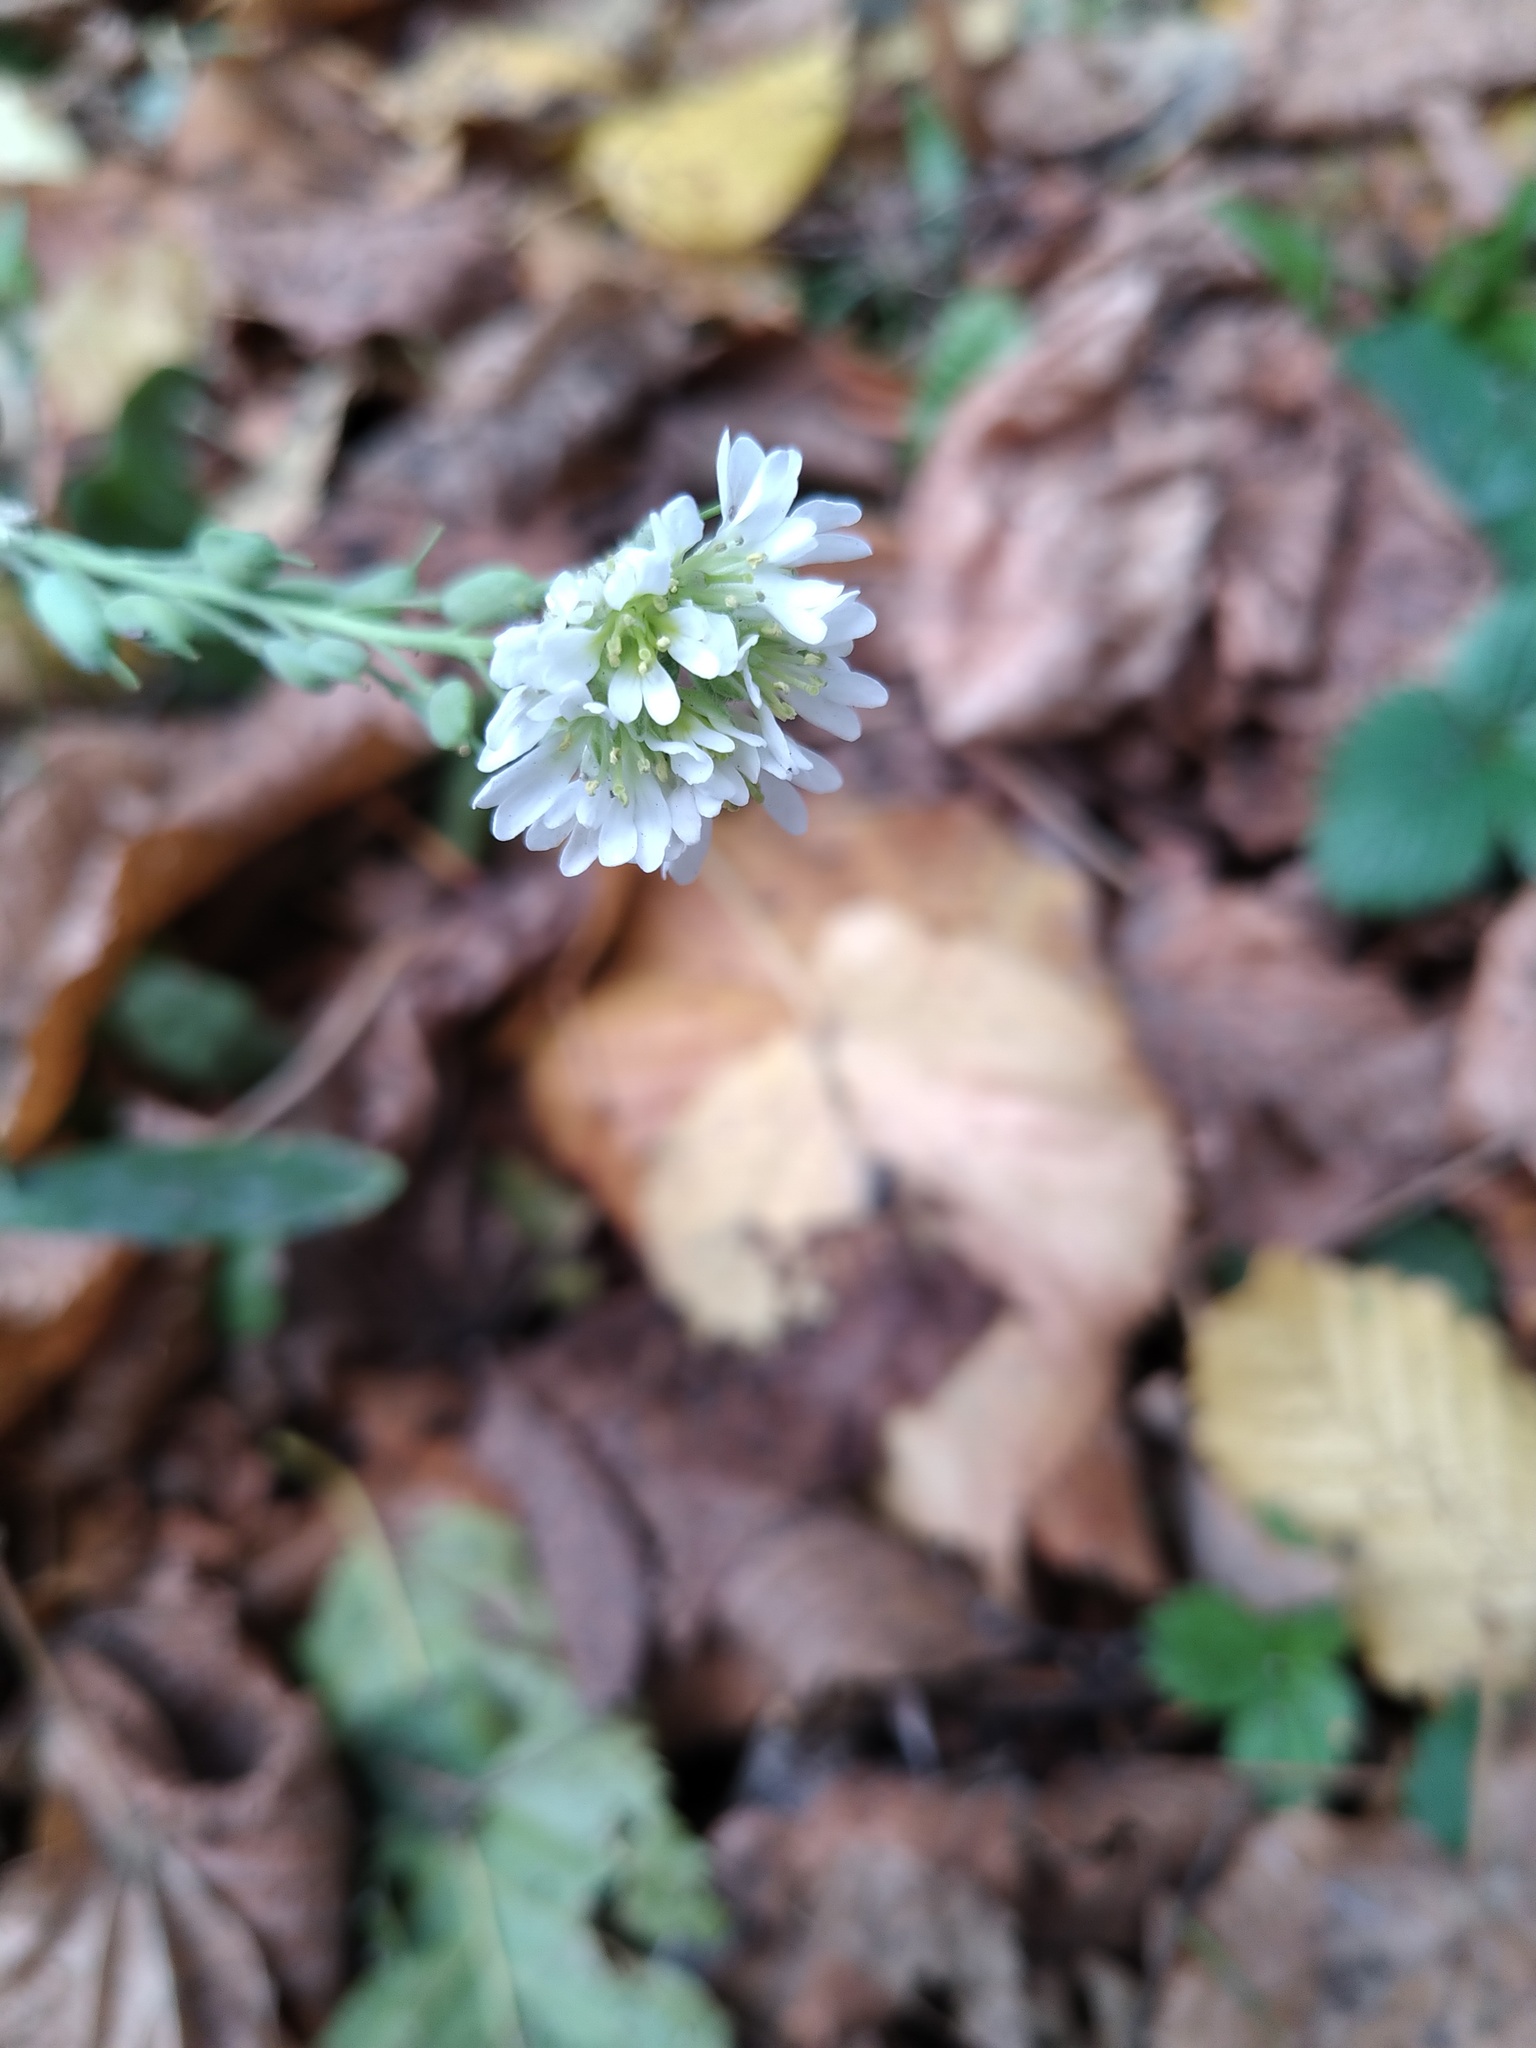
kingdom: Plantae
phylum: Tracheophyta
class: Magnoliopsida
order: Brassicales
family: Brassicaceae
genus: Berteroa
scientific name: Berteroa incana
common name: Hoary alison
